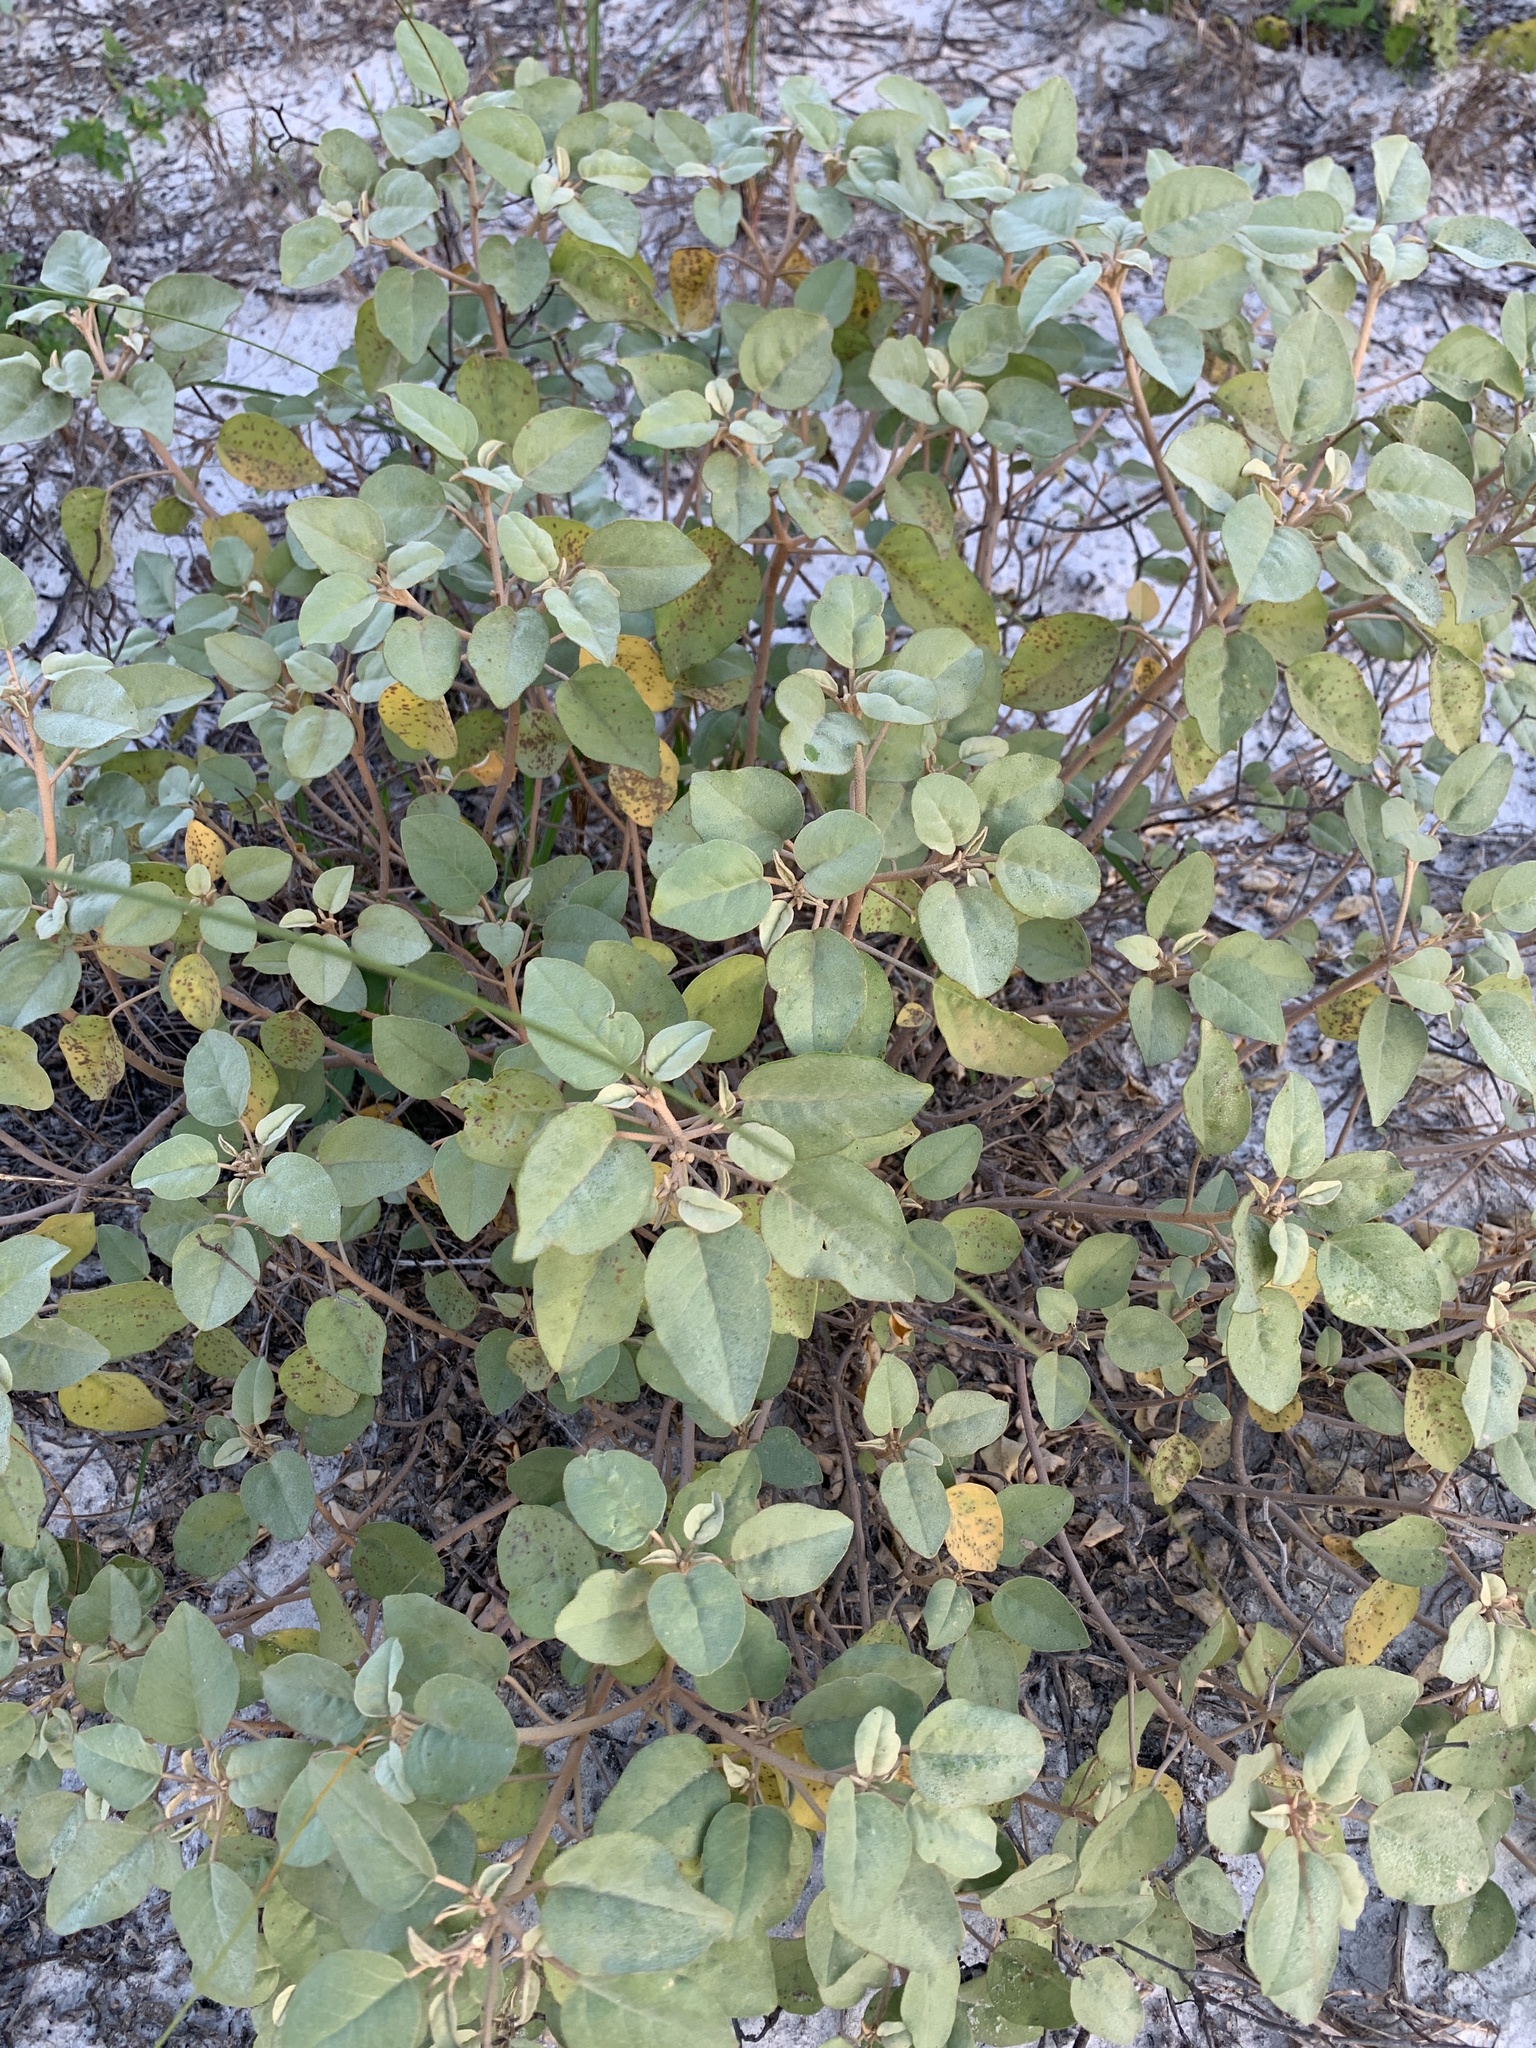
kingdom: Plantae
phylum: Tracheophyta
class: Magnoliopsida
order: Malpighiales
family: Euphorbiaceae
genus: Croton
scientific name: Croton punctatus
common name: Beach-tea
